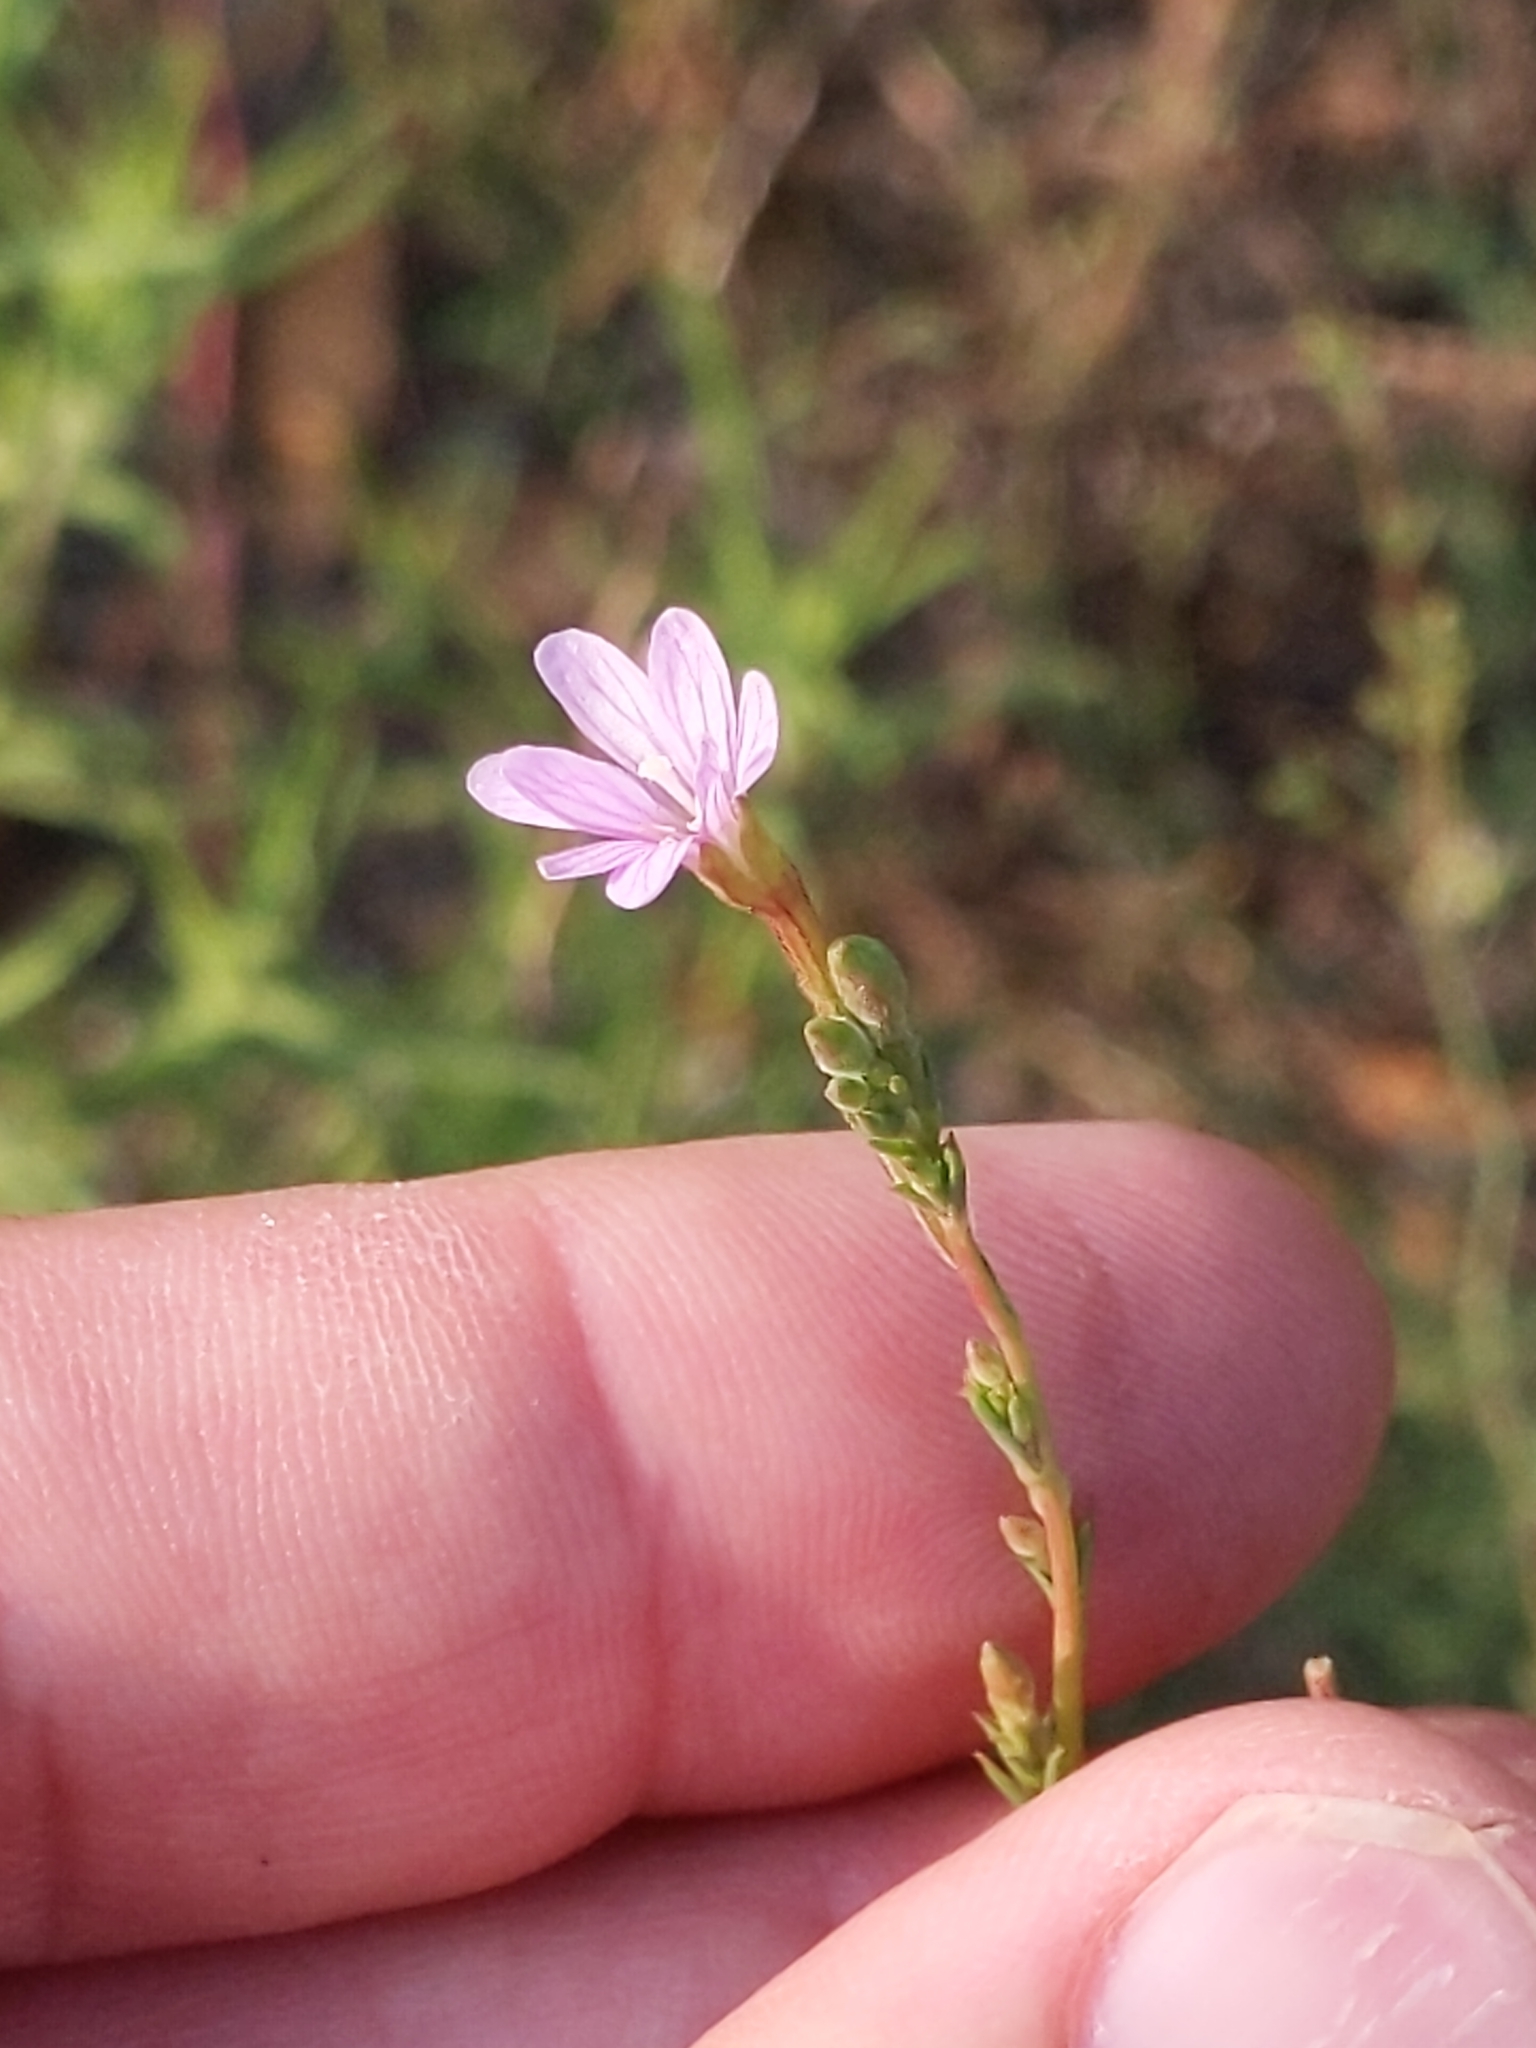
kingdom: Plantae
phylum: Tracheophyta
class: Magnoliopsida
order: Myrtales
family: Onagraceae
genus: Epilobium
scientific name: Epilobium brachycarpum
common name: Annual willowherb
